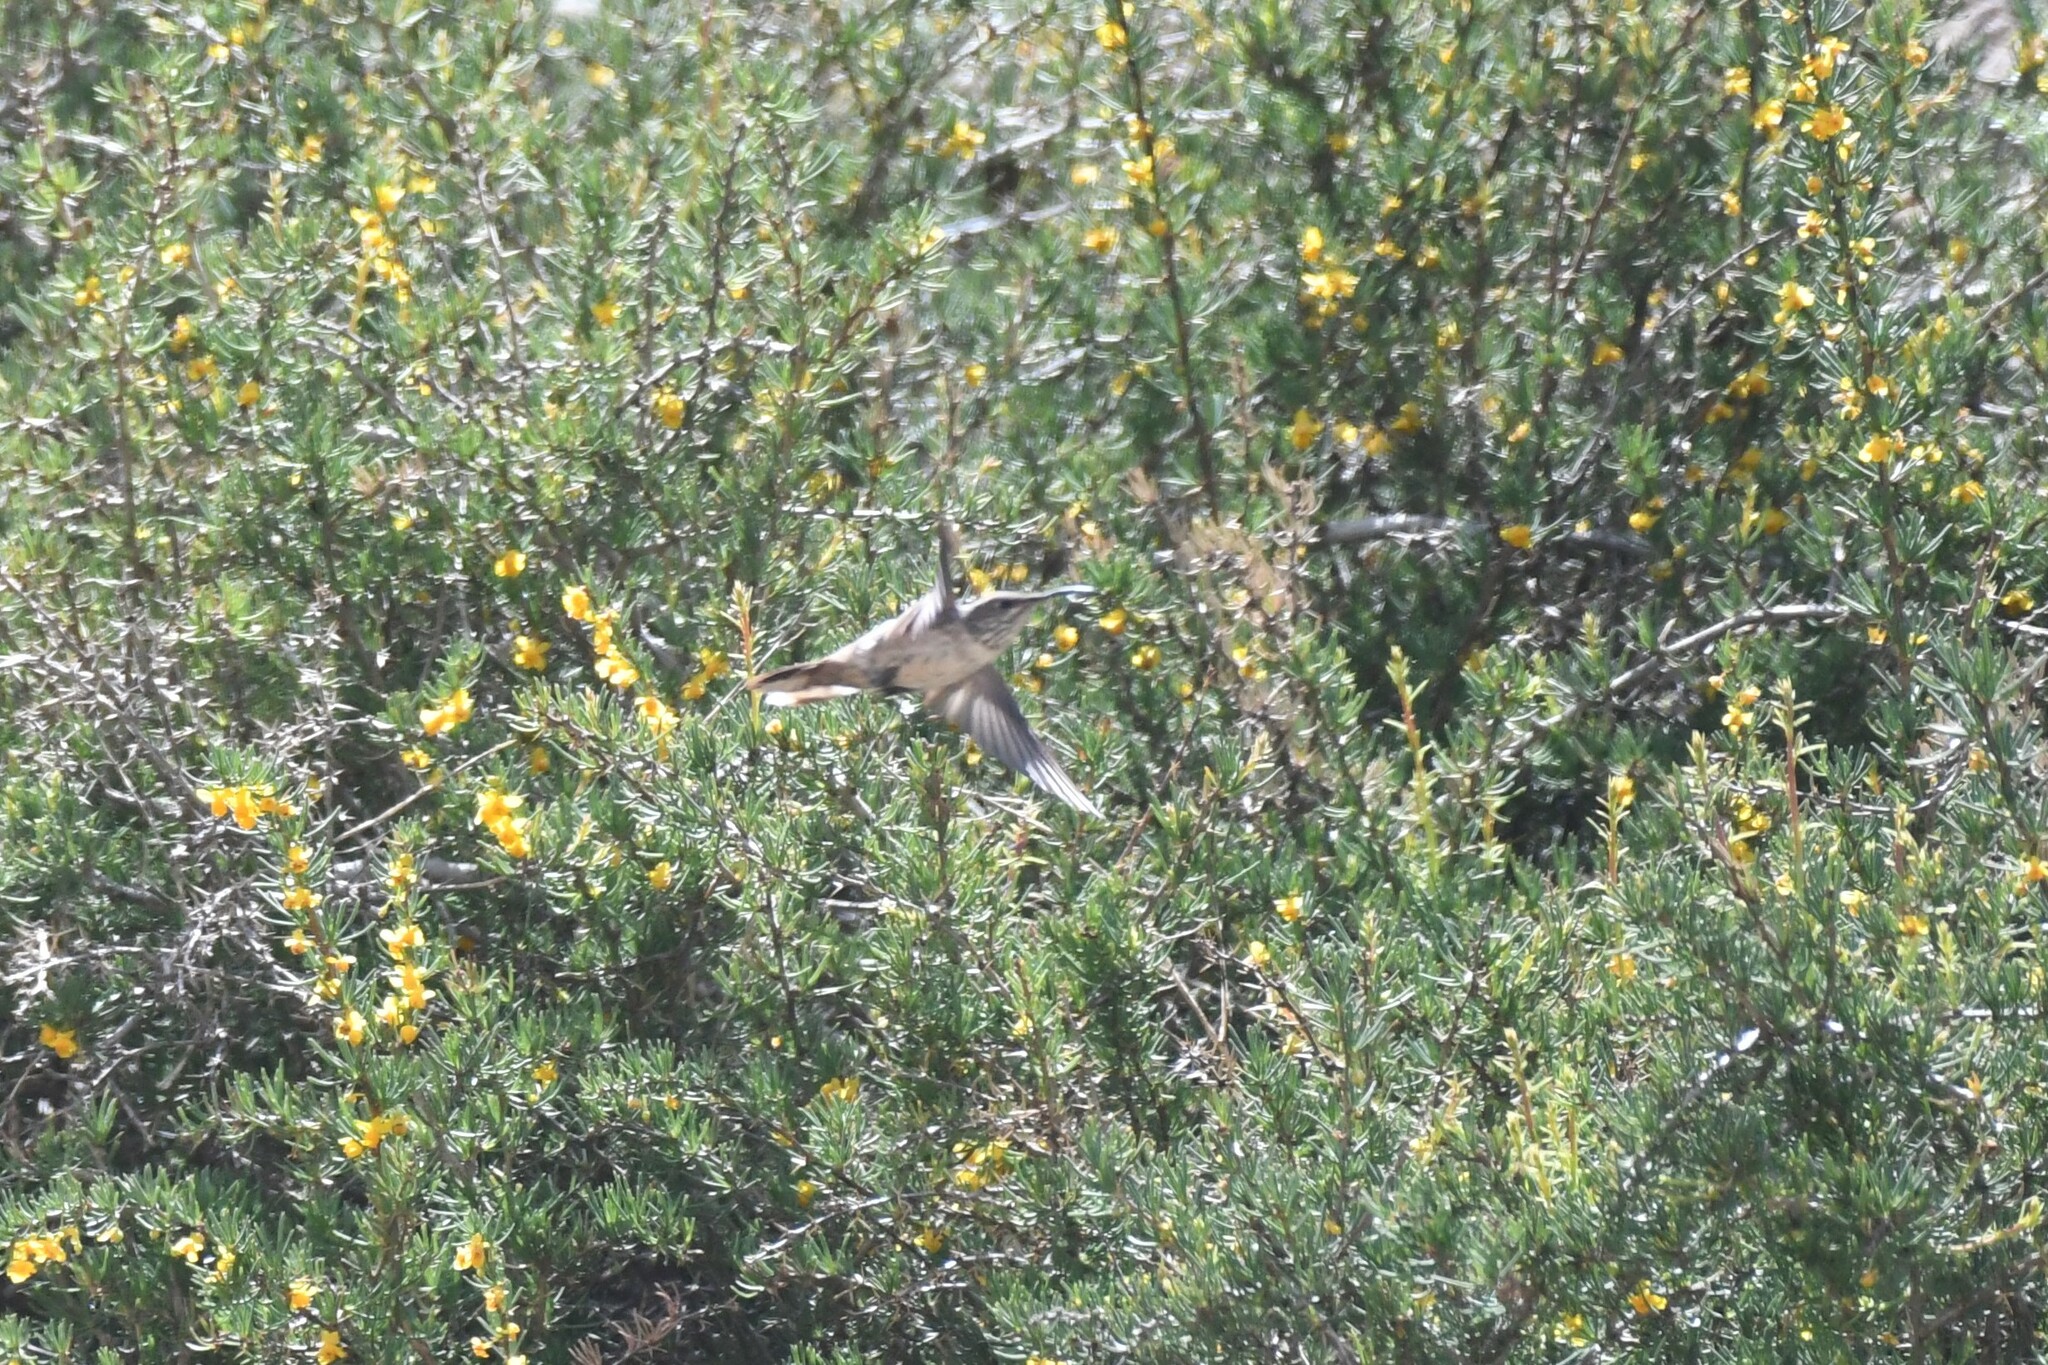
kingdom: Animalia
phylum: Chordata
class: Aves
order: Apodiformes
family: Trochilidae
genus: Oreotrochilus
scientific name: Oreotrochilus leucopleurus
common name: White-sided hillstar
